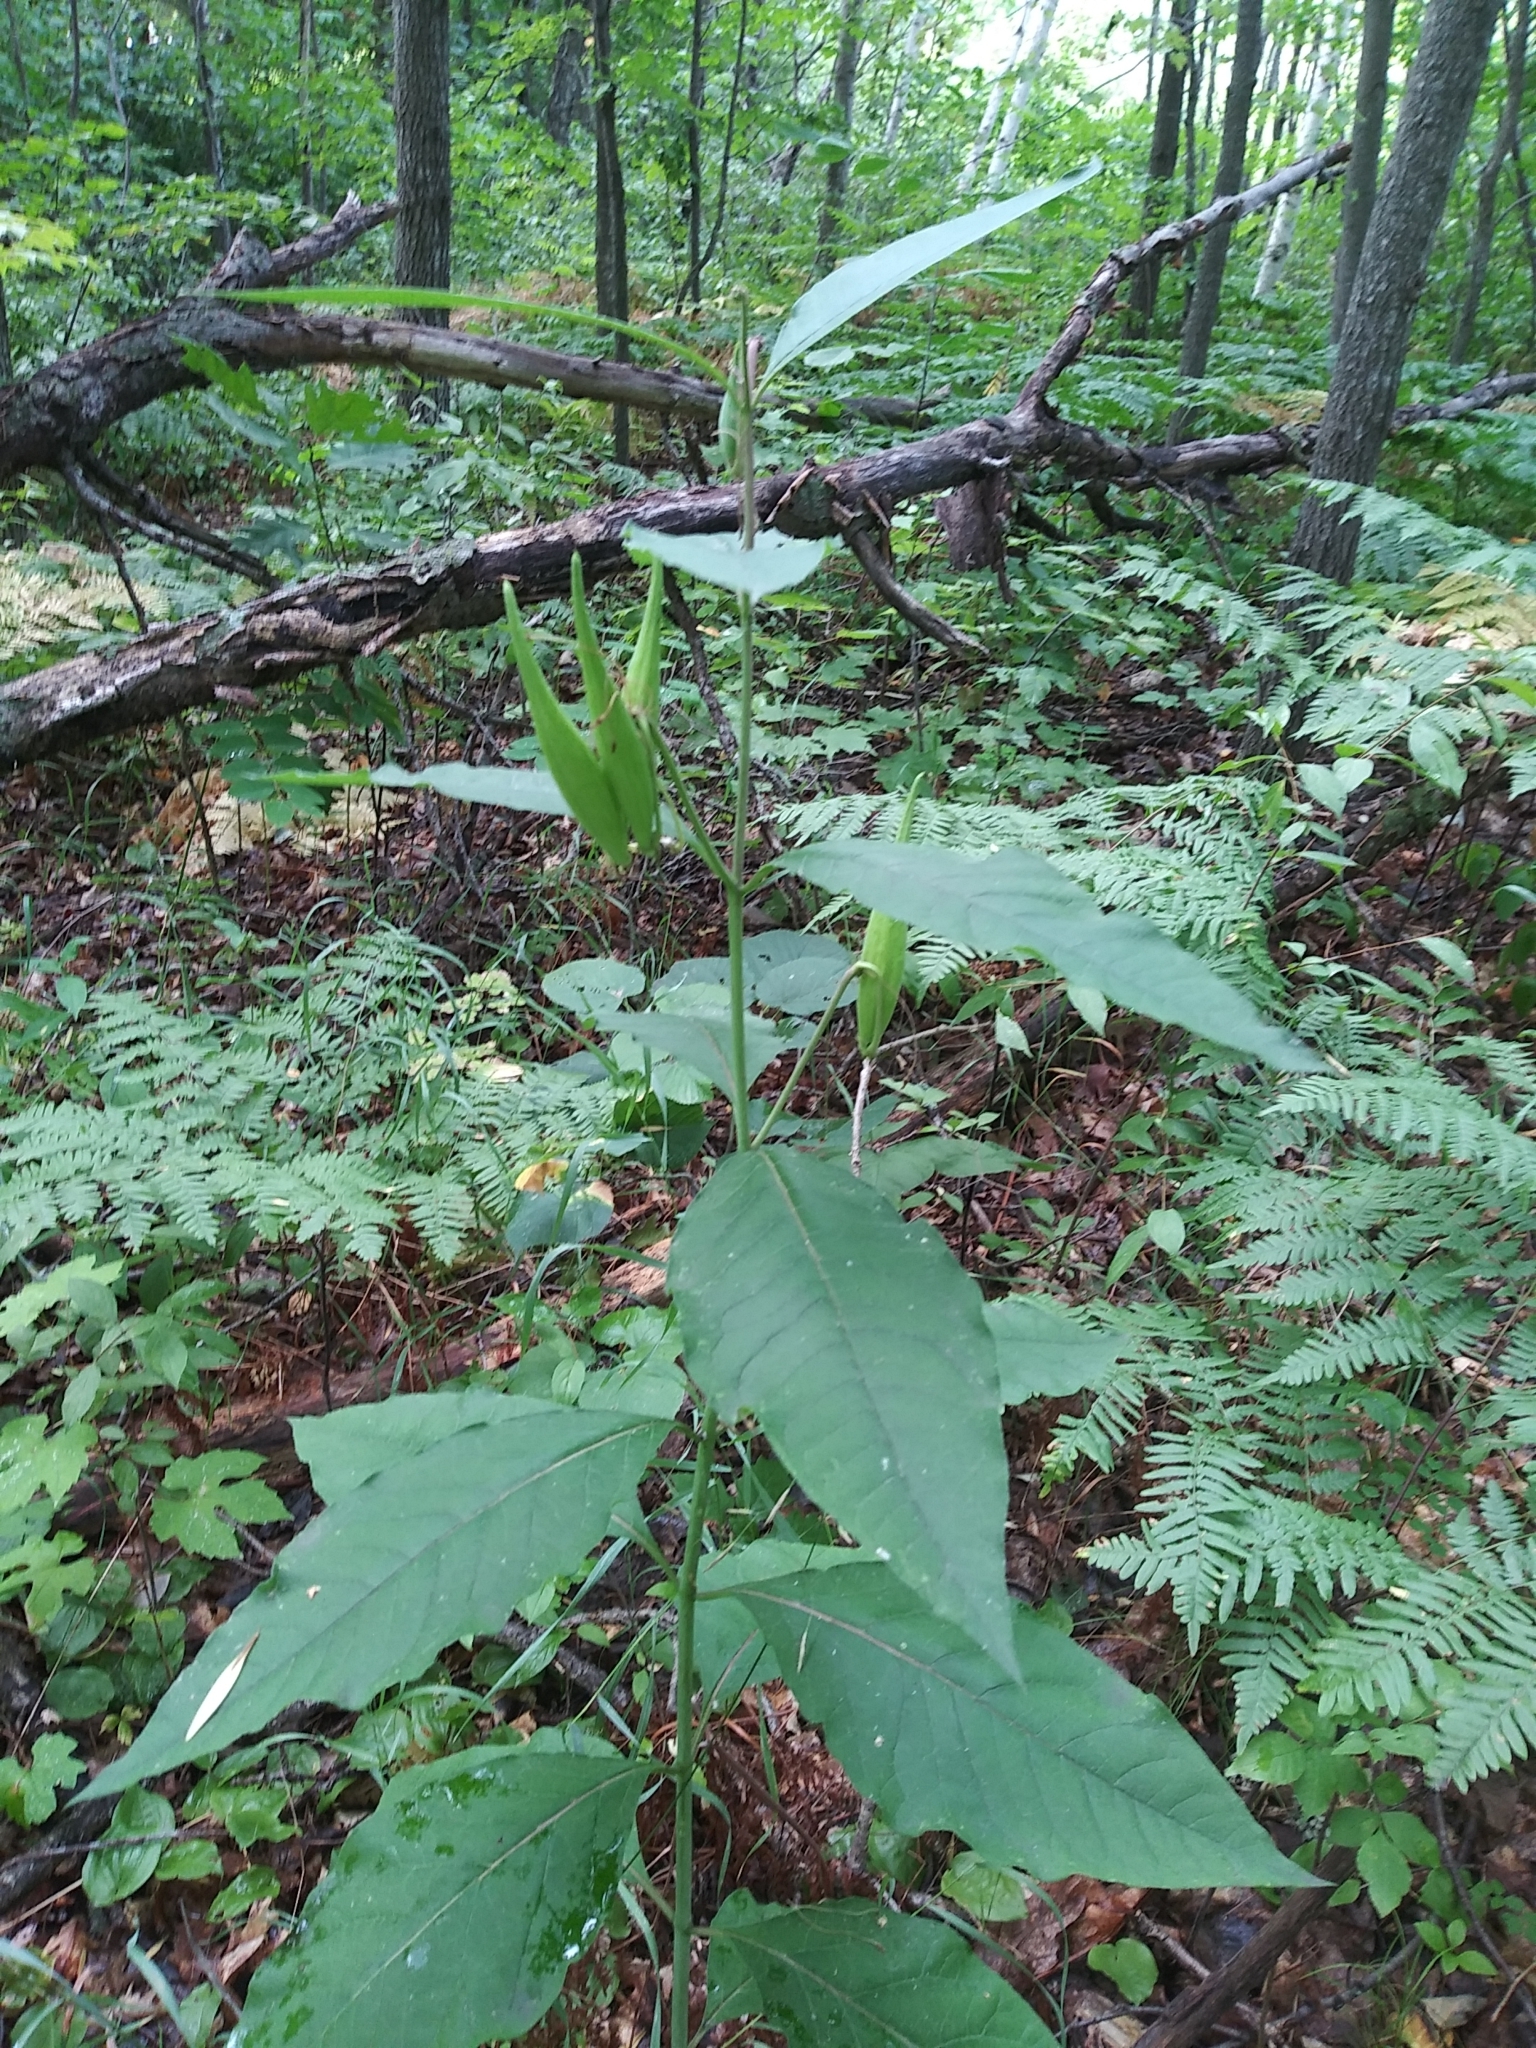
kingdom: Plantae
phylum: Tracheophyta
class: Magnoliopsida
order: Gentianales
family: Apocynaceae
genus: Asclepias
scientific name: Asclepias exaltata
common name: Poke milkweed
